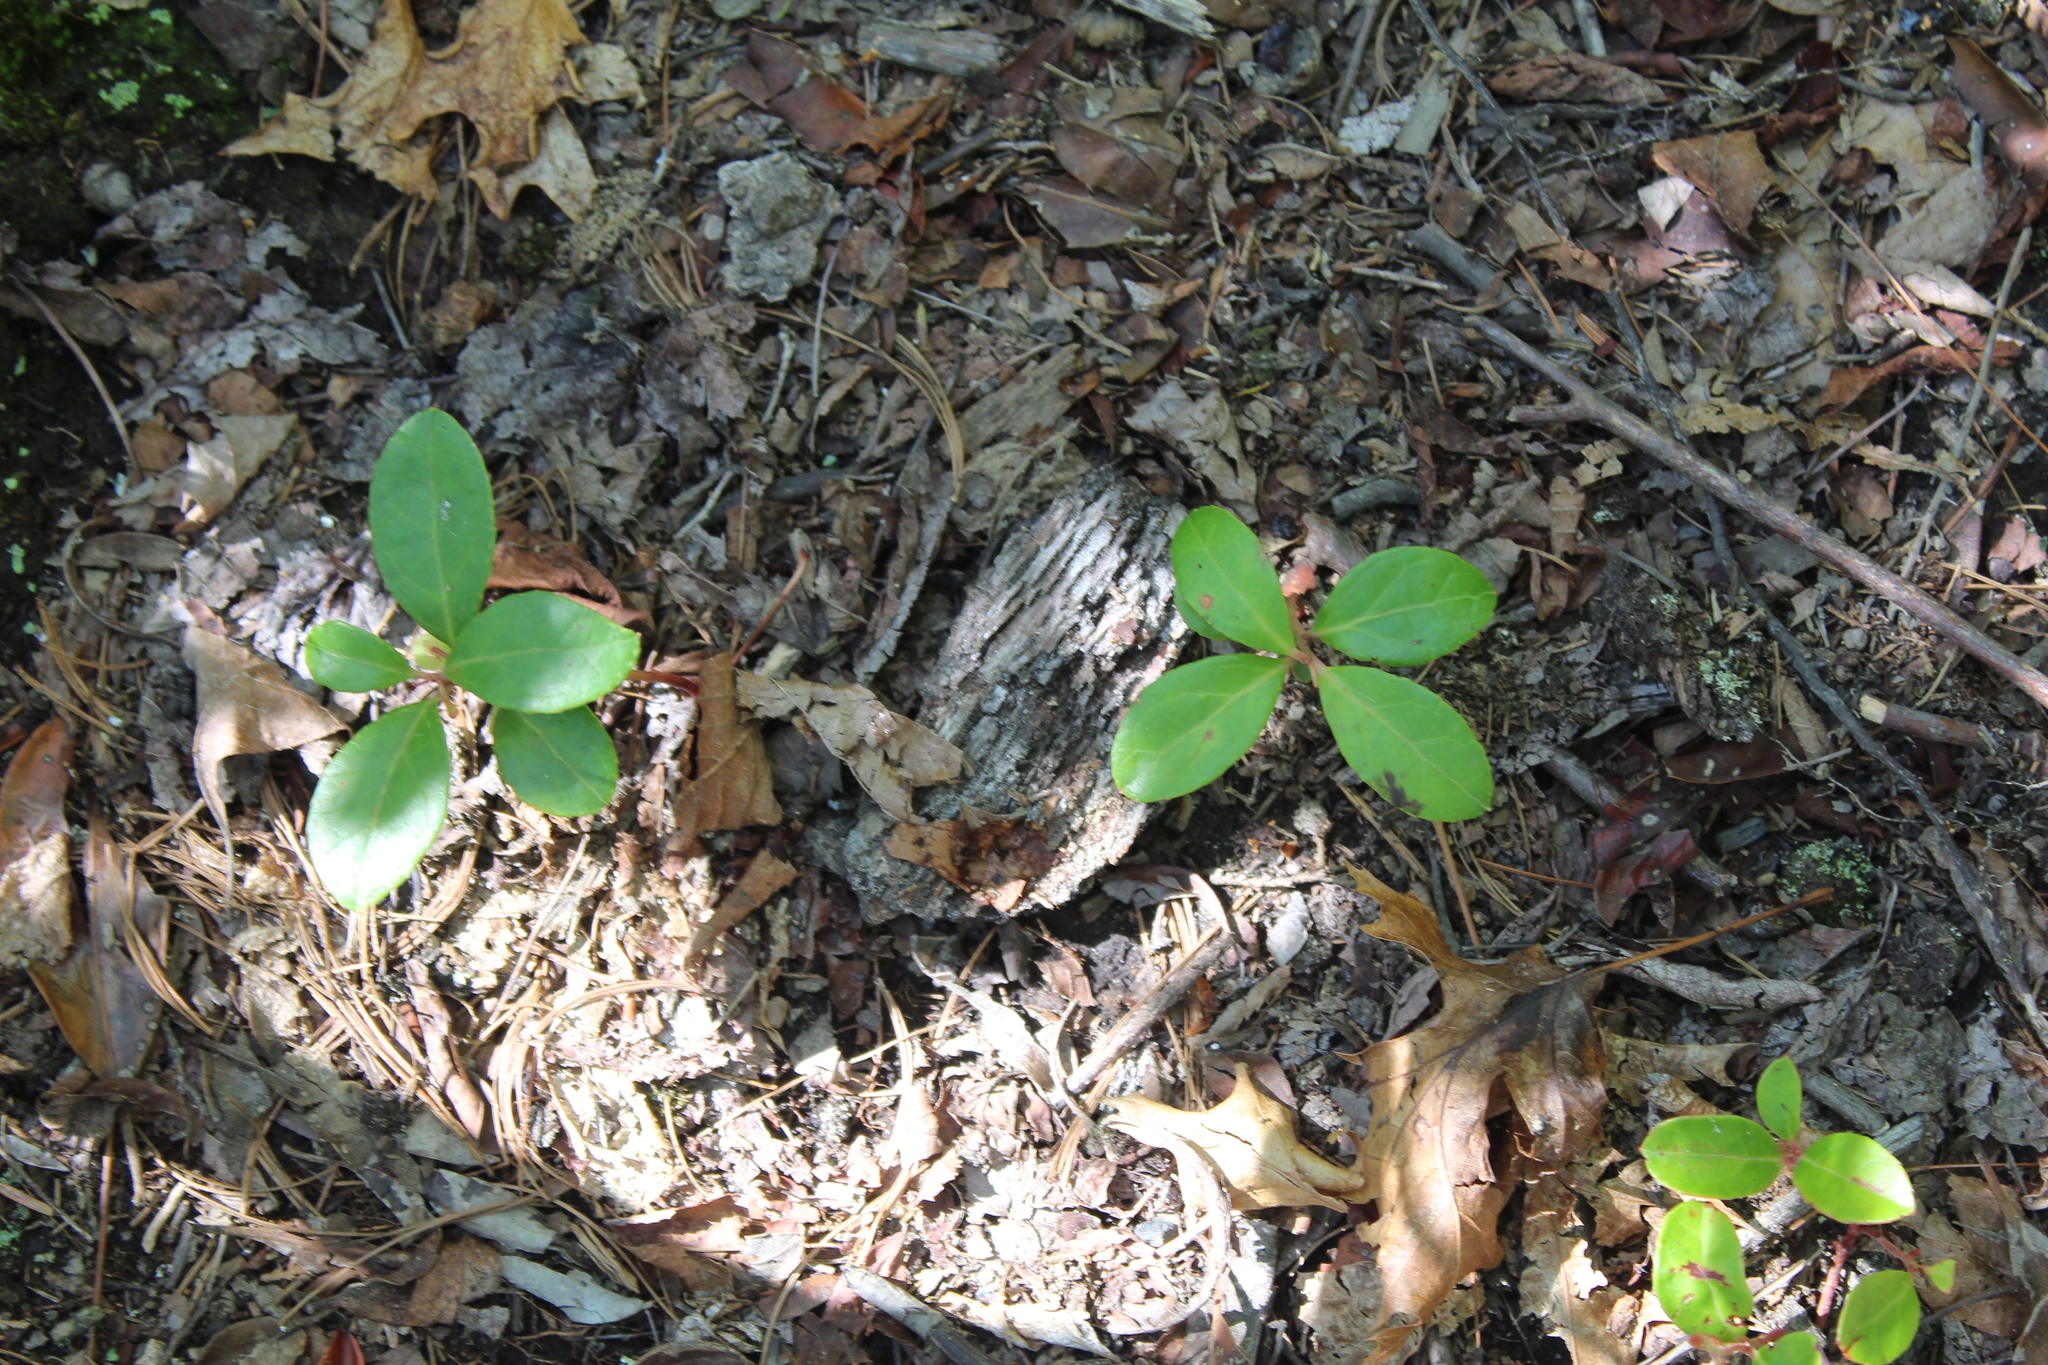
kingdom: Plantae
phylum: Tracheophyta
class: Magnoliopsida
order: Ericales
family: Ericaceae
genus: Gaultheria
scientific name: Gaultheria procumbens
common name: Checkerberry
